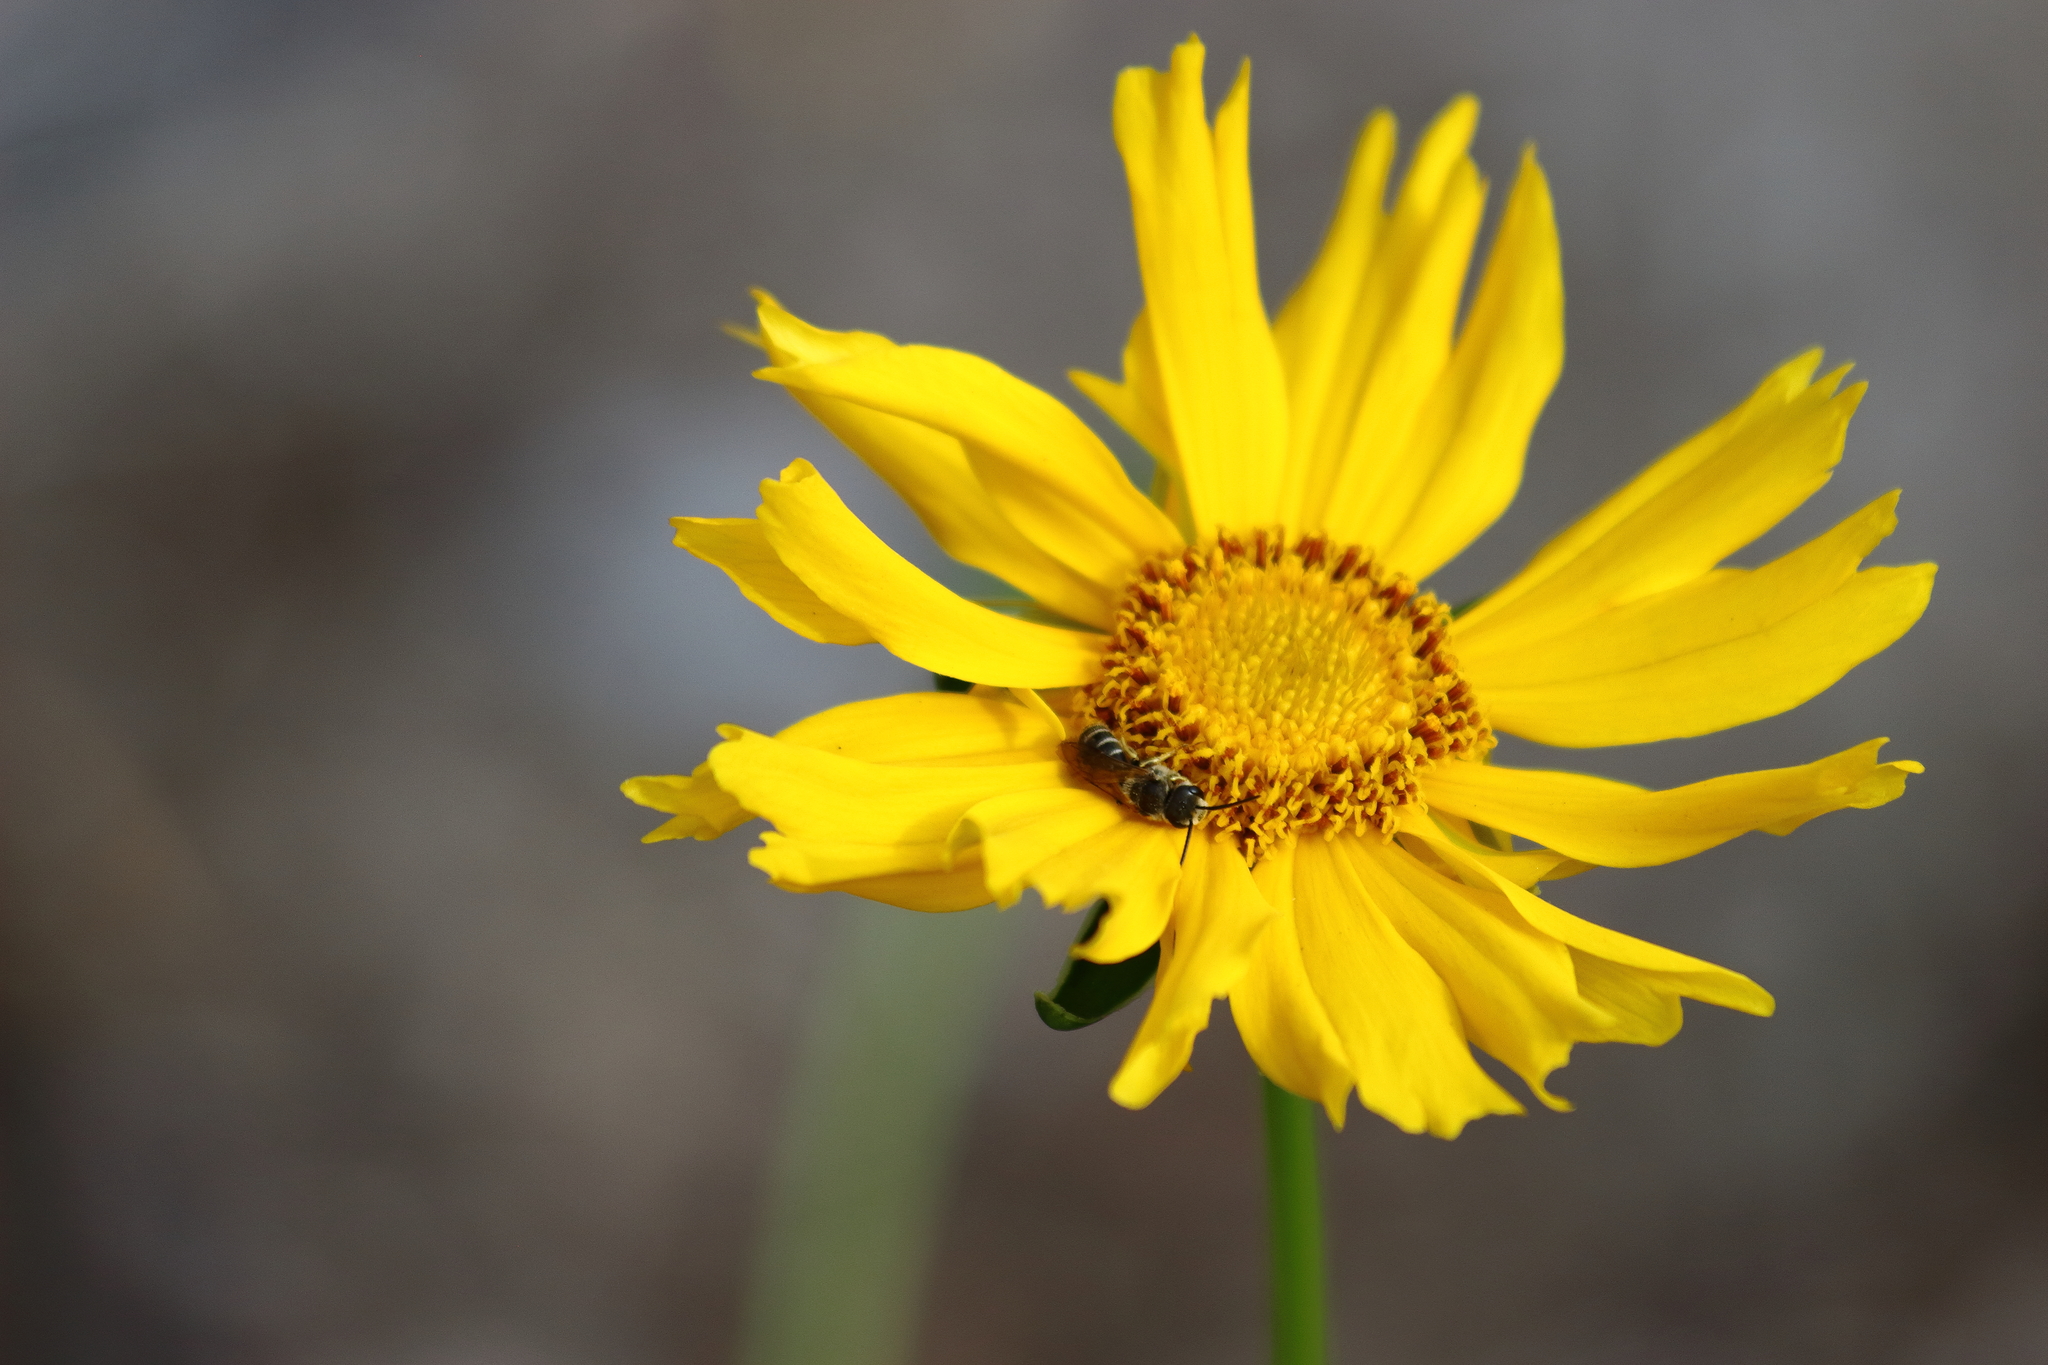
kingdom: Animalia
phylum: Arthropoda
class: Insecta
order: Hymenoptera
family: Halictidae
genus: Halictus
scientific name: Halictus ligatus
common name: Ligated furrow bee
